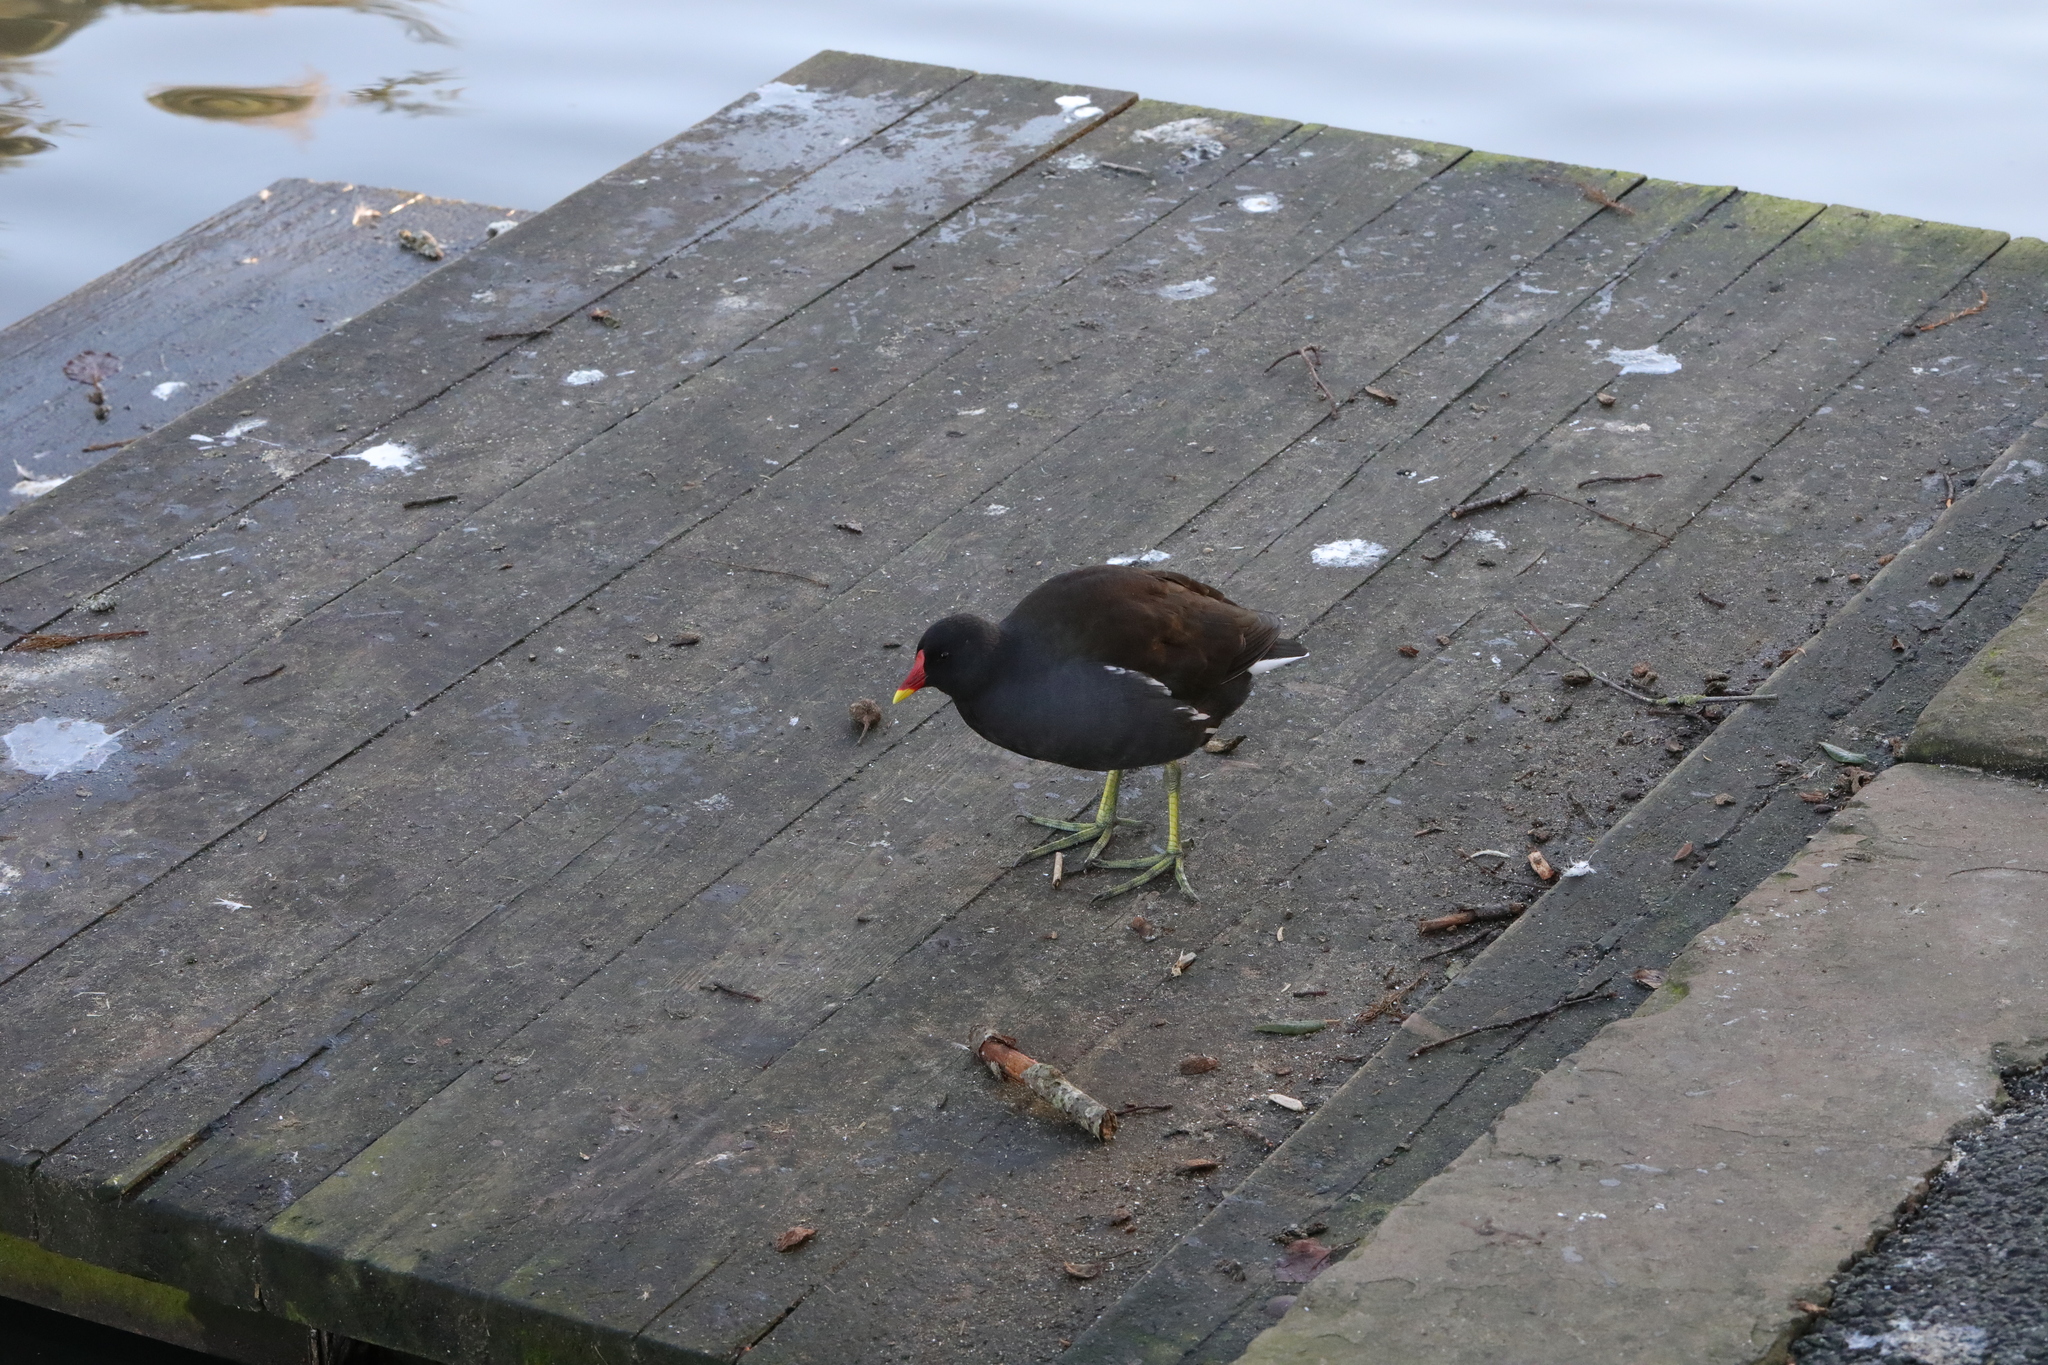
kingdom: Animalia
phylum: Chordata
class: Aves
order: Gruiformes
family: Rallidae
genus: Gallinula
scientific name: Gallinula chloropus
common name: Common moorhen
